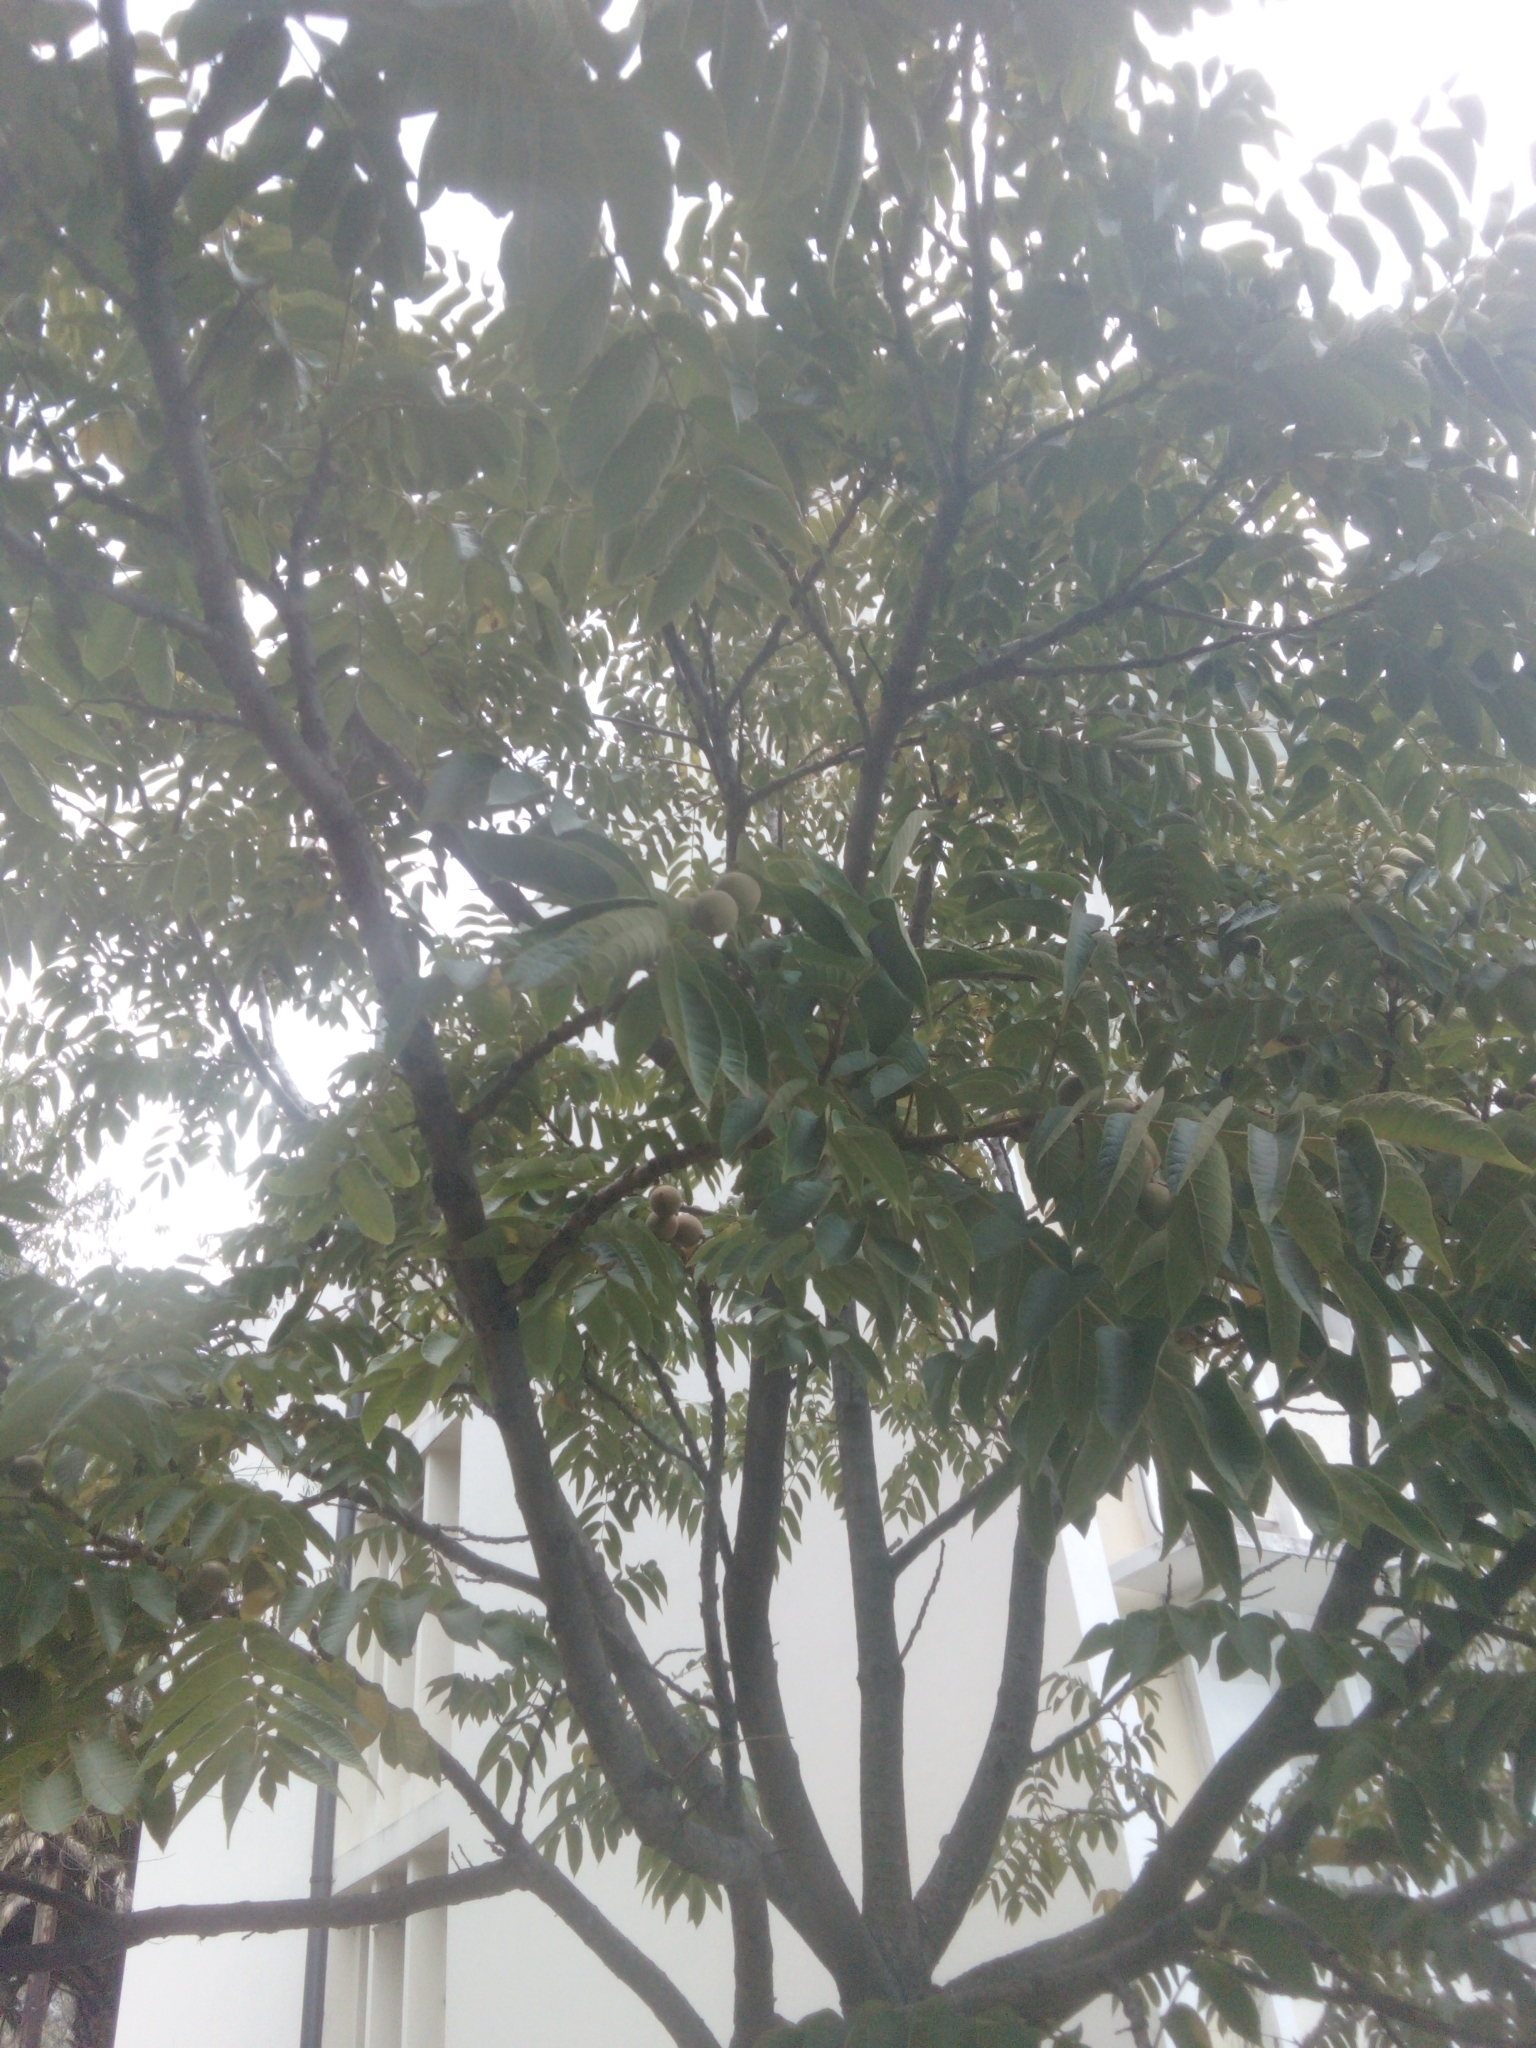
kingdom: Plantae
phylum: Tracheophyta
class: Magnoliopsida
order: Fagales
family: Juglandaceae
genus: Juglans
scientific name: Juglans neotropica
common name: Andean walnut
